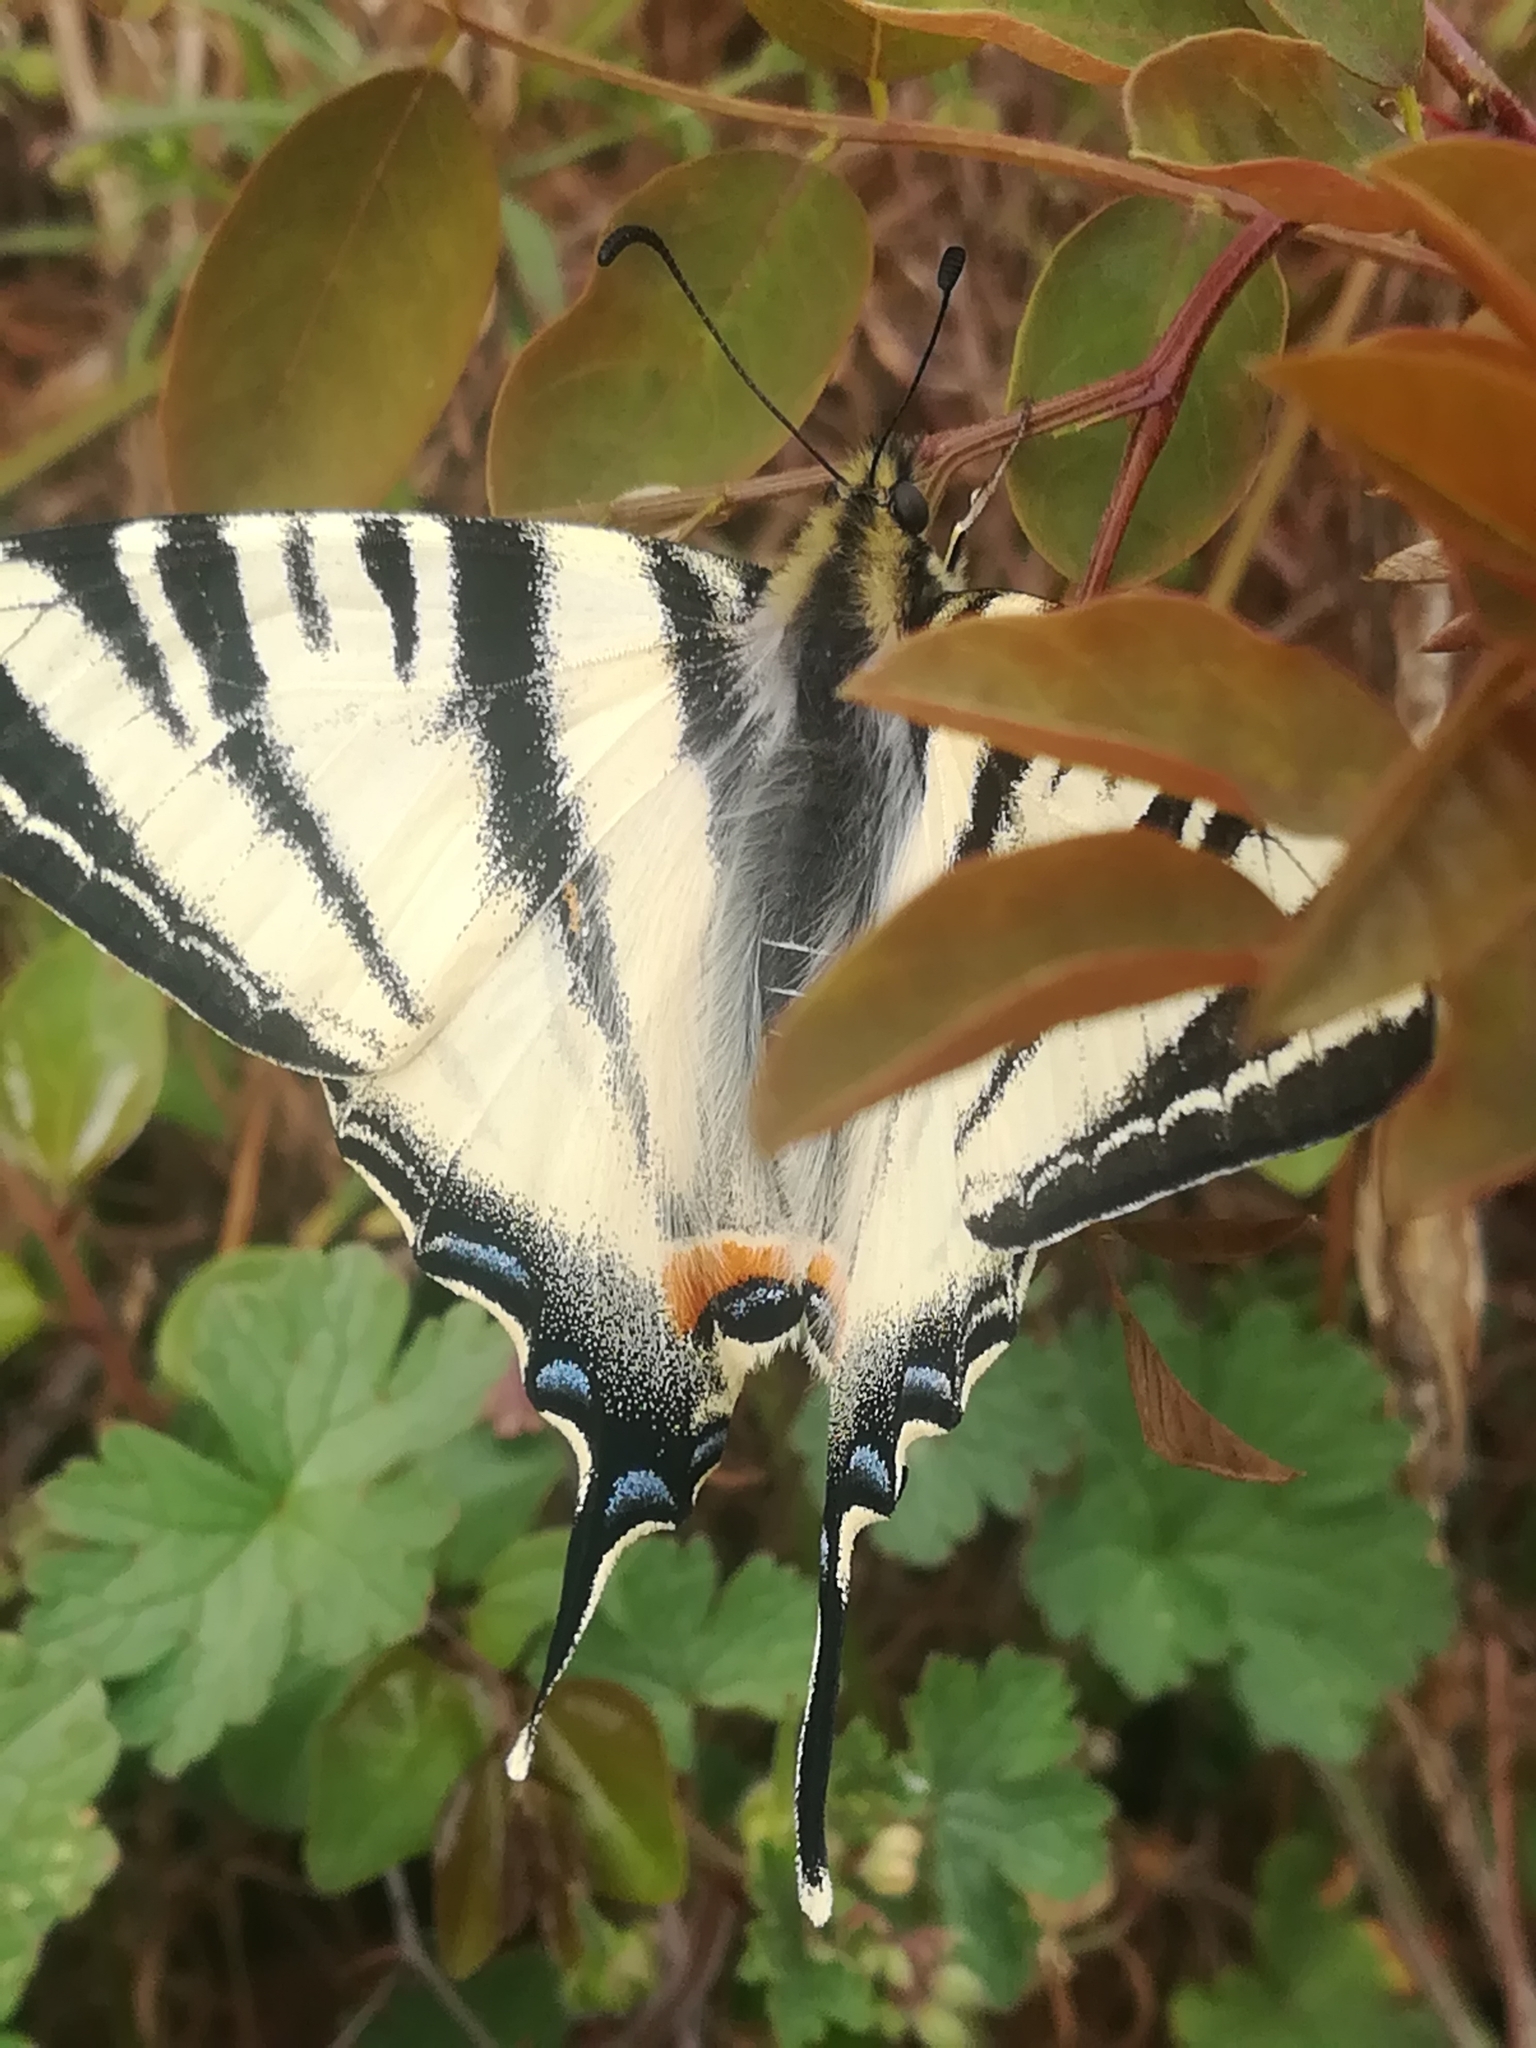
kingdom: Animalia
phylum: Arthropoda
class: Insecta
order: Lepidoptera
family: Papilionidae
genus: Iphiclides
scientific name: Iphiclides podalirius
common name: Scarce swallowtail
